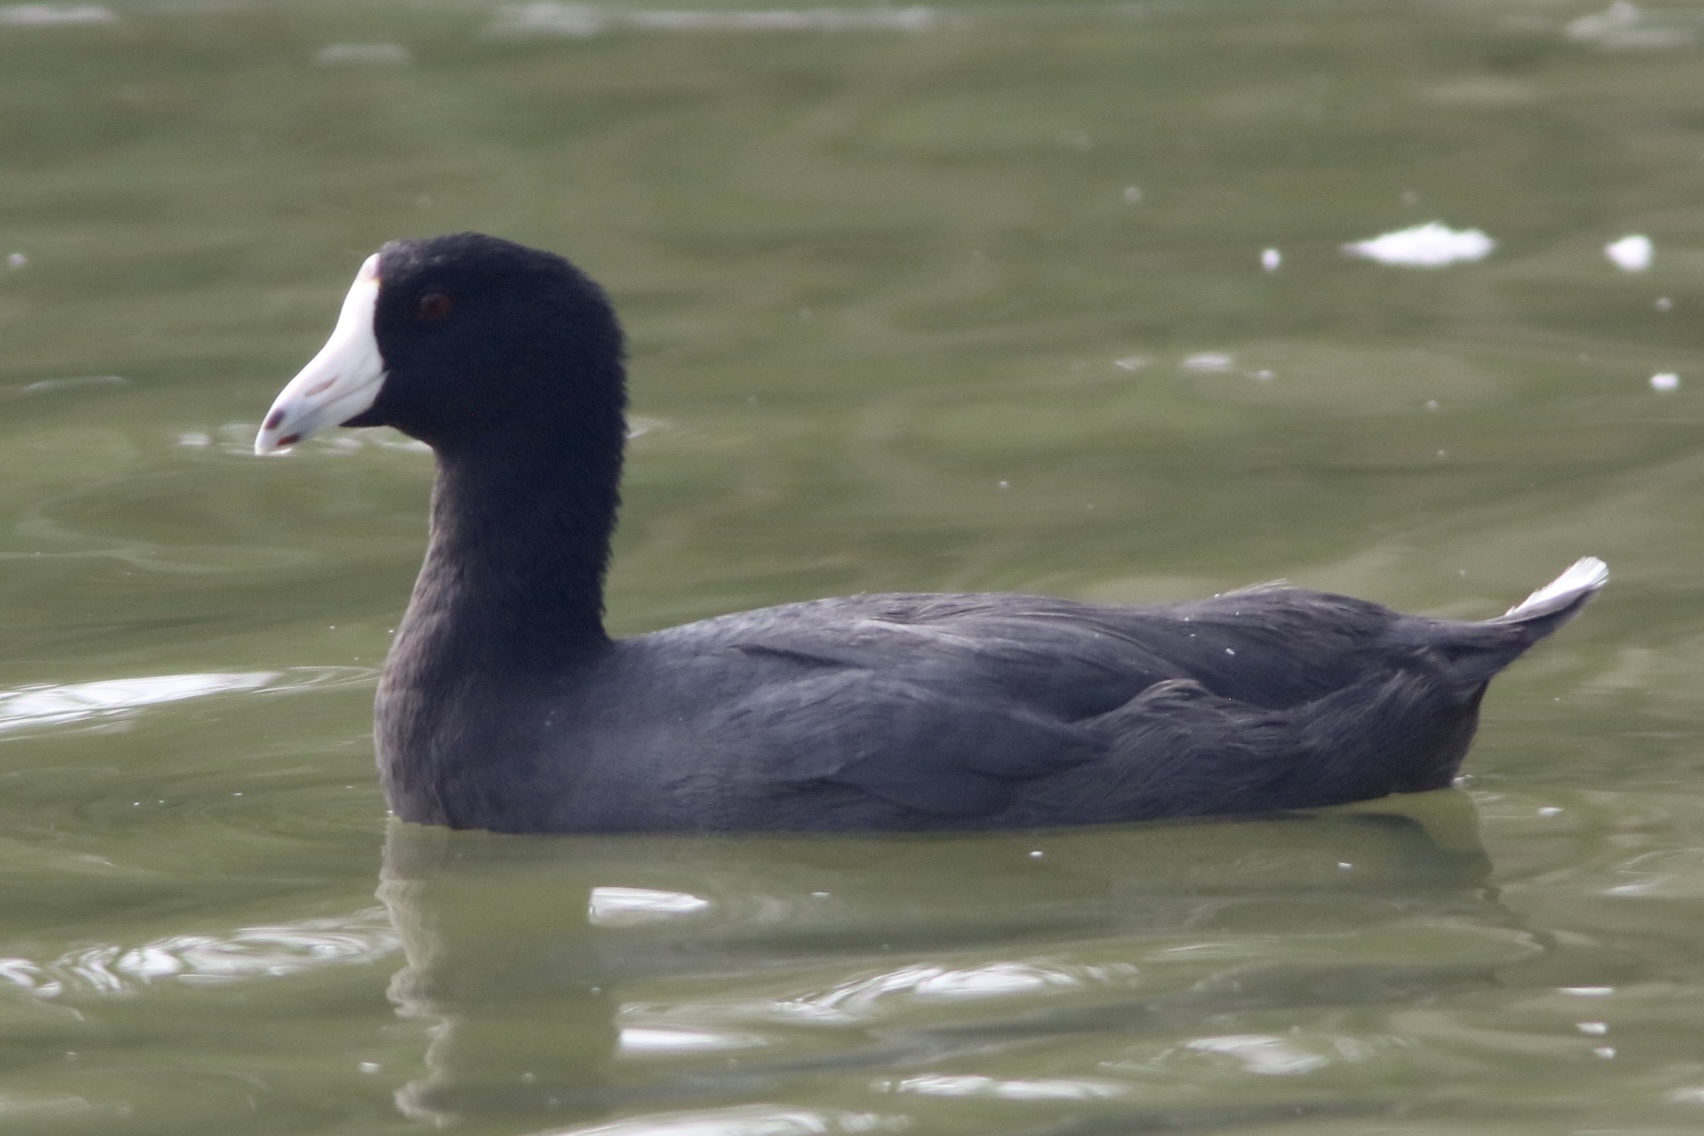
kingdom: Animalia
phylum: Chordata
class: Aves
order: Gruiformes
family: Rallidae
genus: Fulica
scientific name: Fulica americana
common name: American coot
